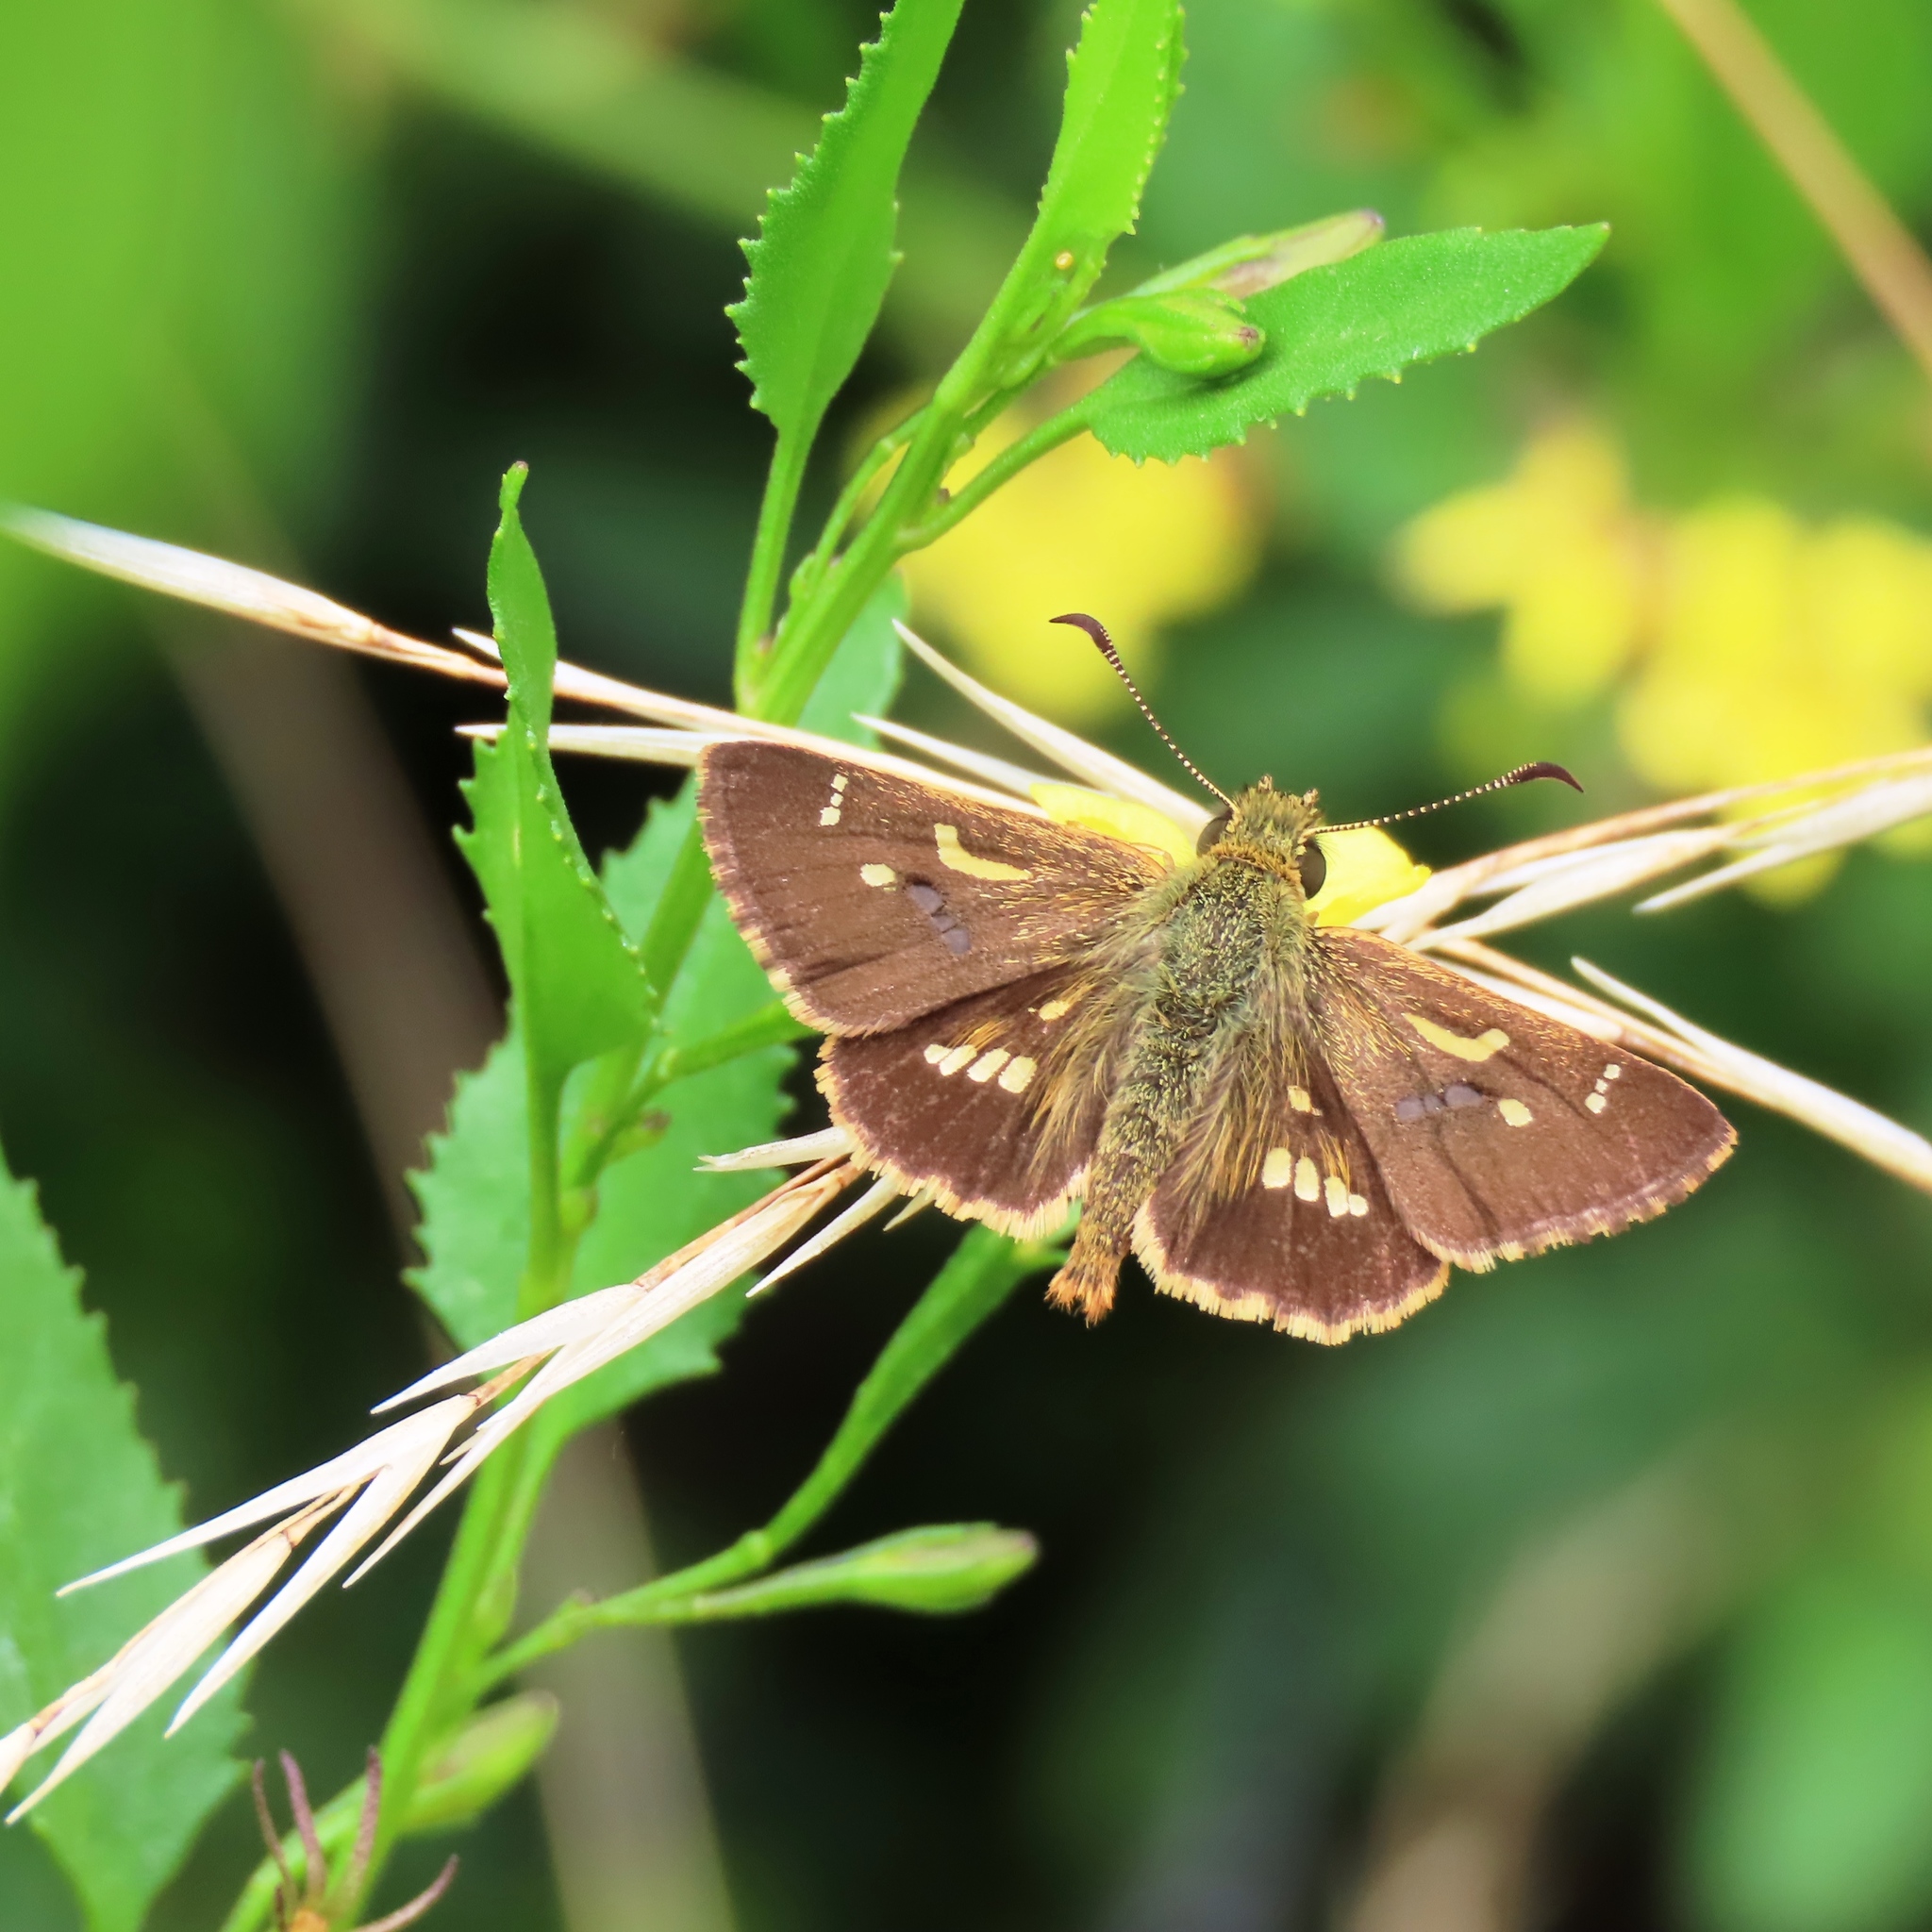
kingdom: Animalia
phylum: Arthropoda
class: Insecta
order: Lepidoptera
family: Hesperiidae
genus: Dispar
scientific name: Dispar compacta
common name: Barred skipper
